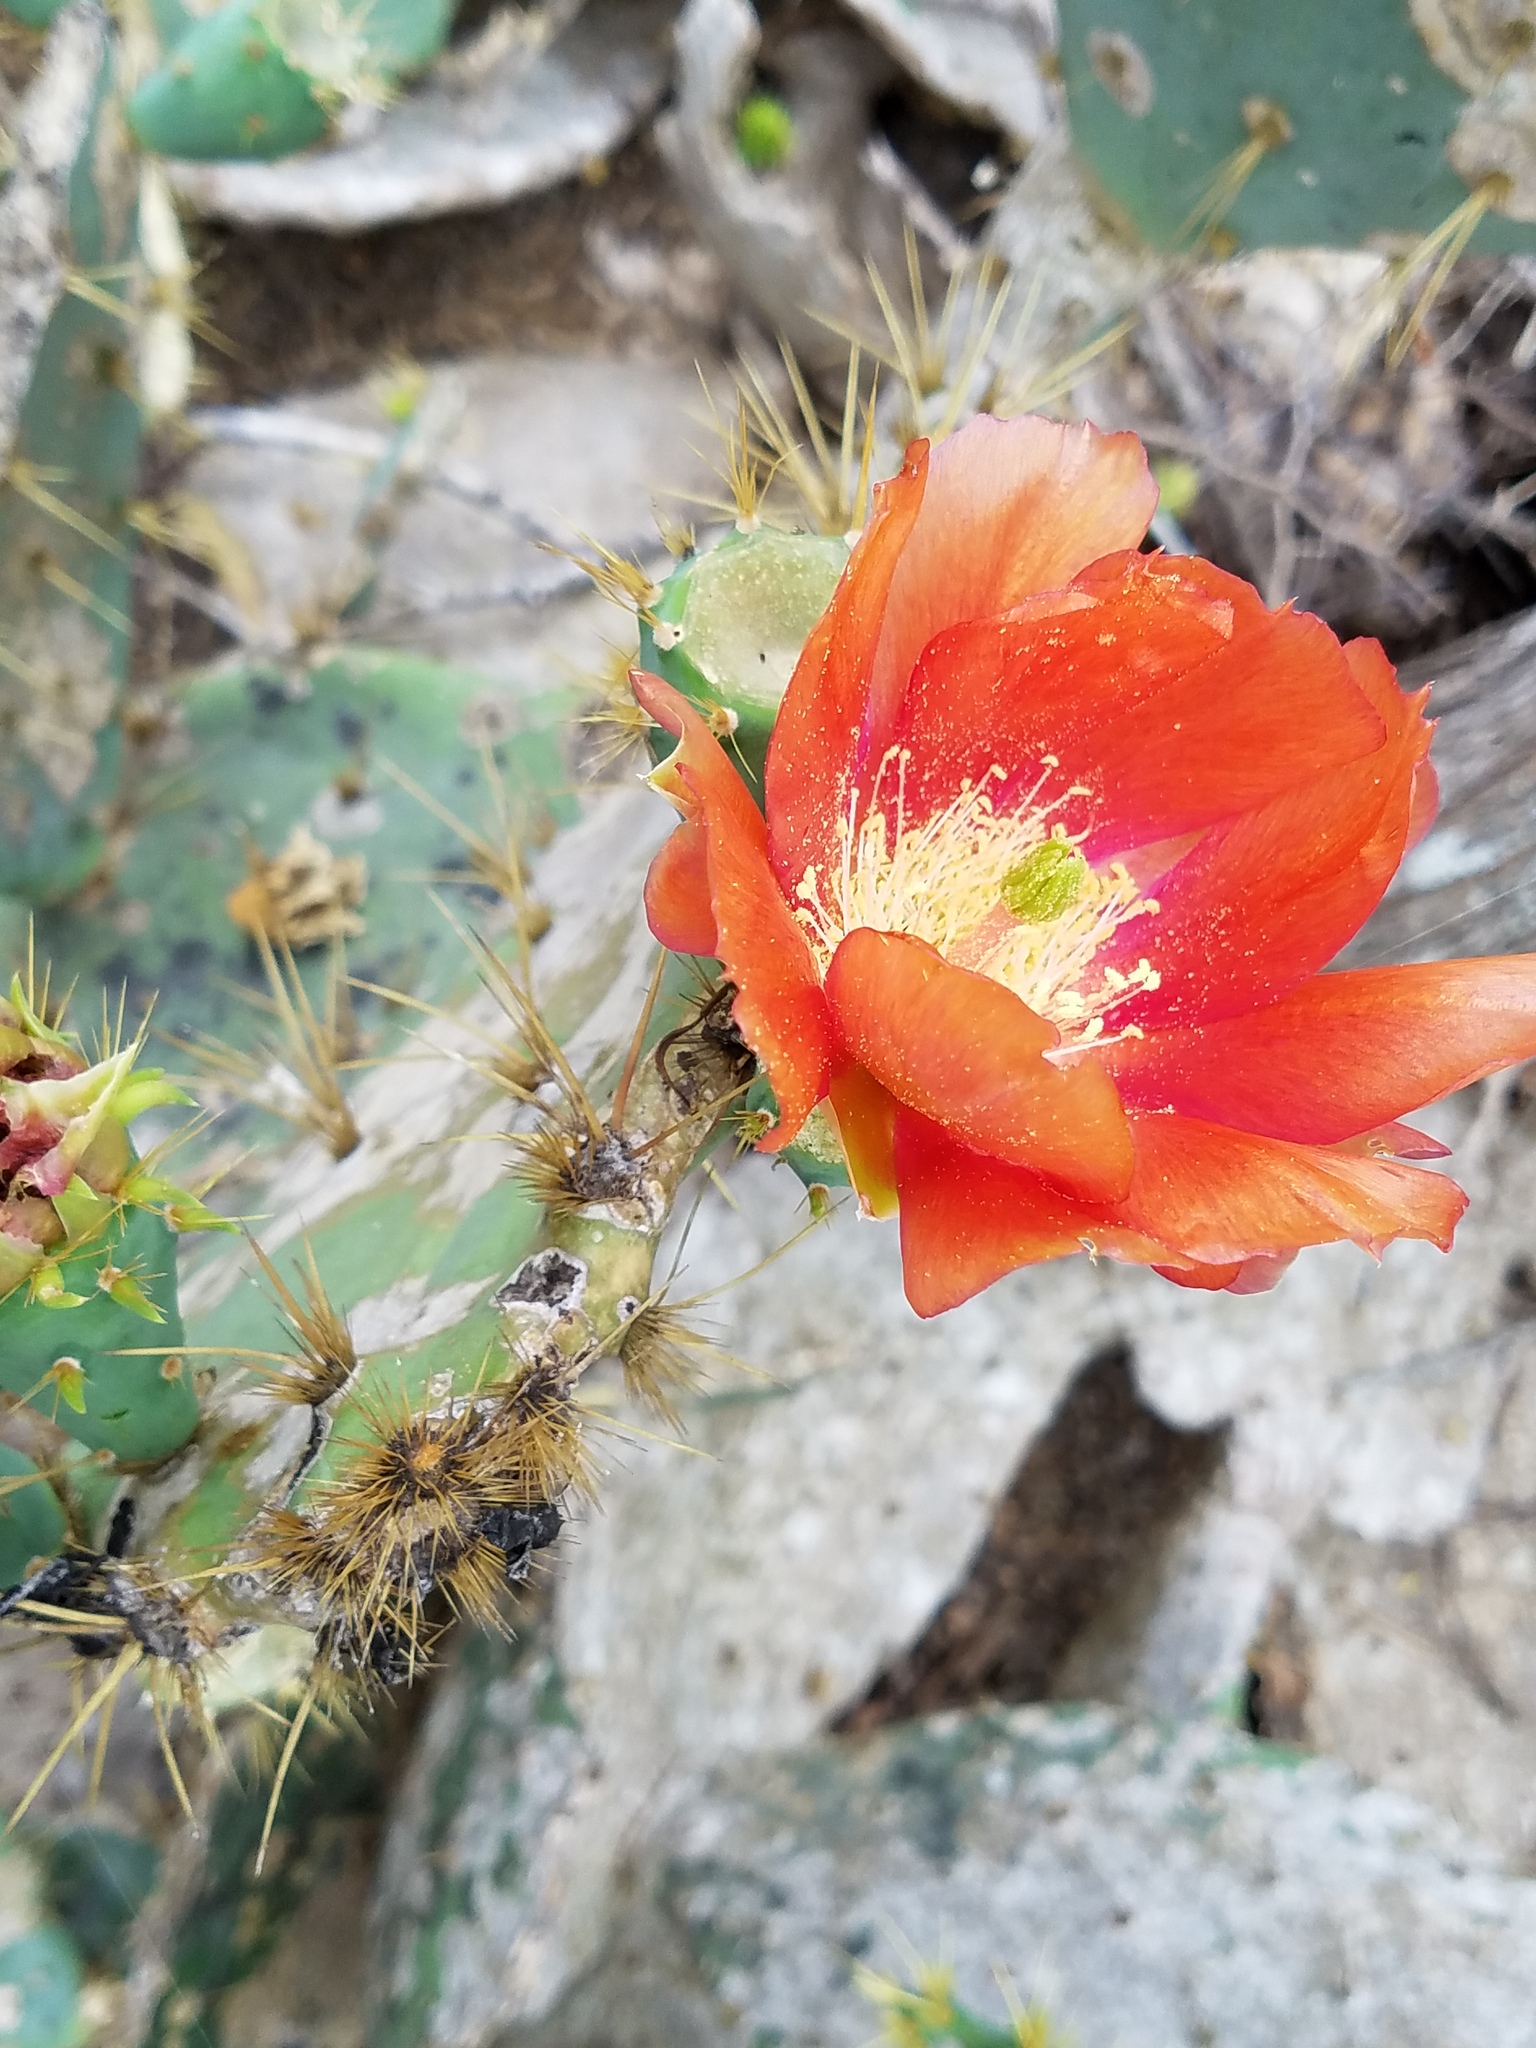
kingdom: Plantae
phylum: Tracheophyta
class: Magnoliopsida
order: Caryophyllales
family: Cactaceae
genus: Opuntia
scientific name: Opuntia engelmannii
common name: Cactus-apple
